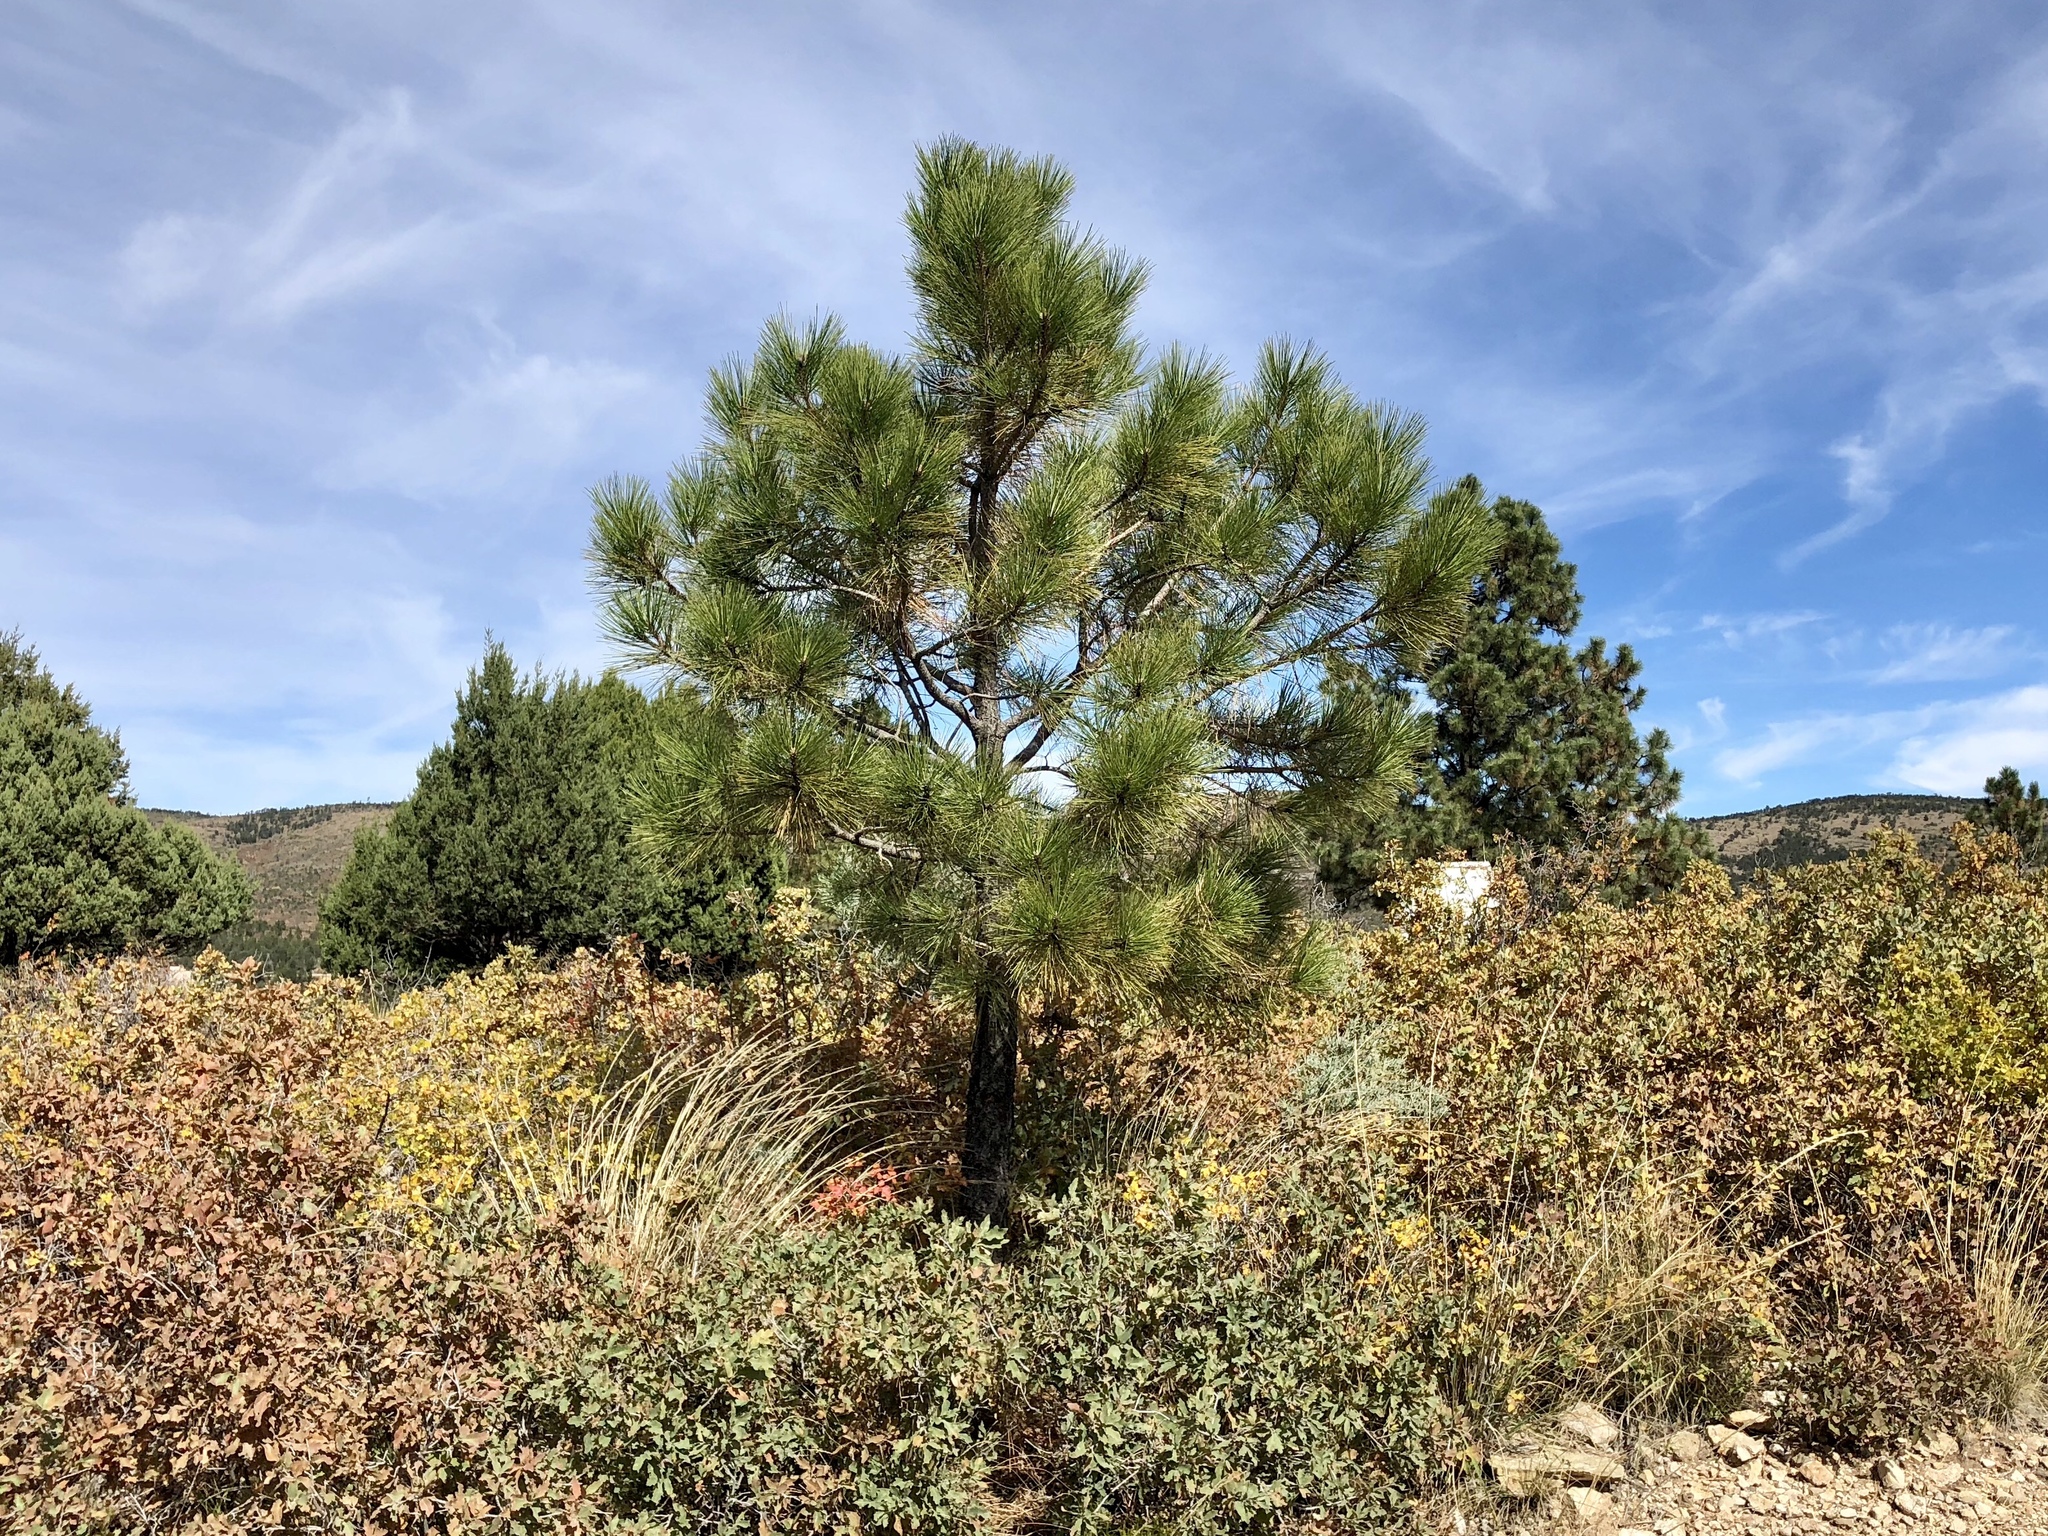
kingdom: Plantae
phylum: Tracheophyta
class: Pinopsida
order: Pinales
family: Pinaceae
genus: Pinus
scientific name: Pinus ponderosa
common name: Western yellow-pine
